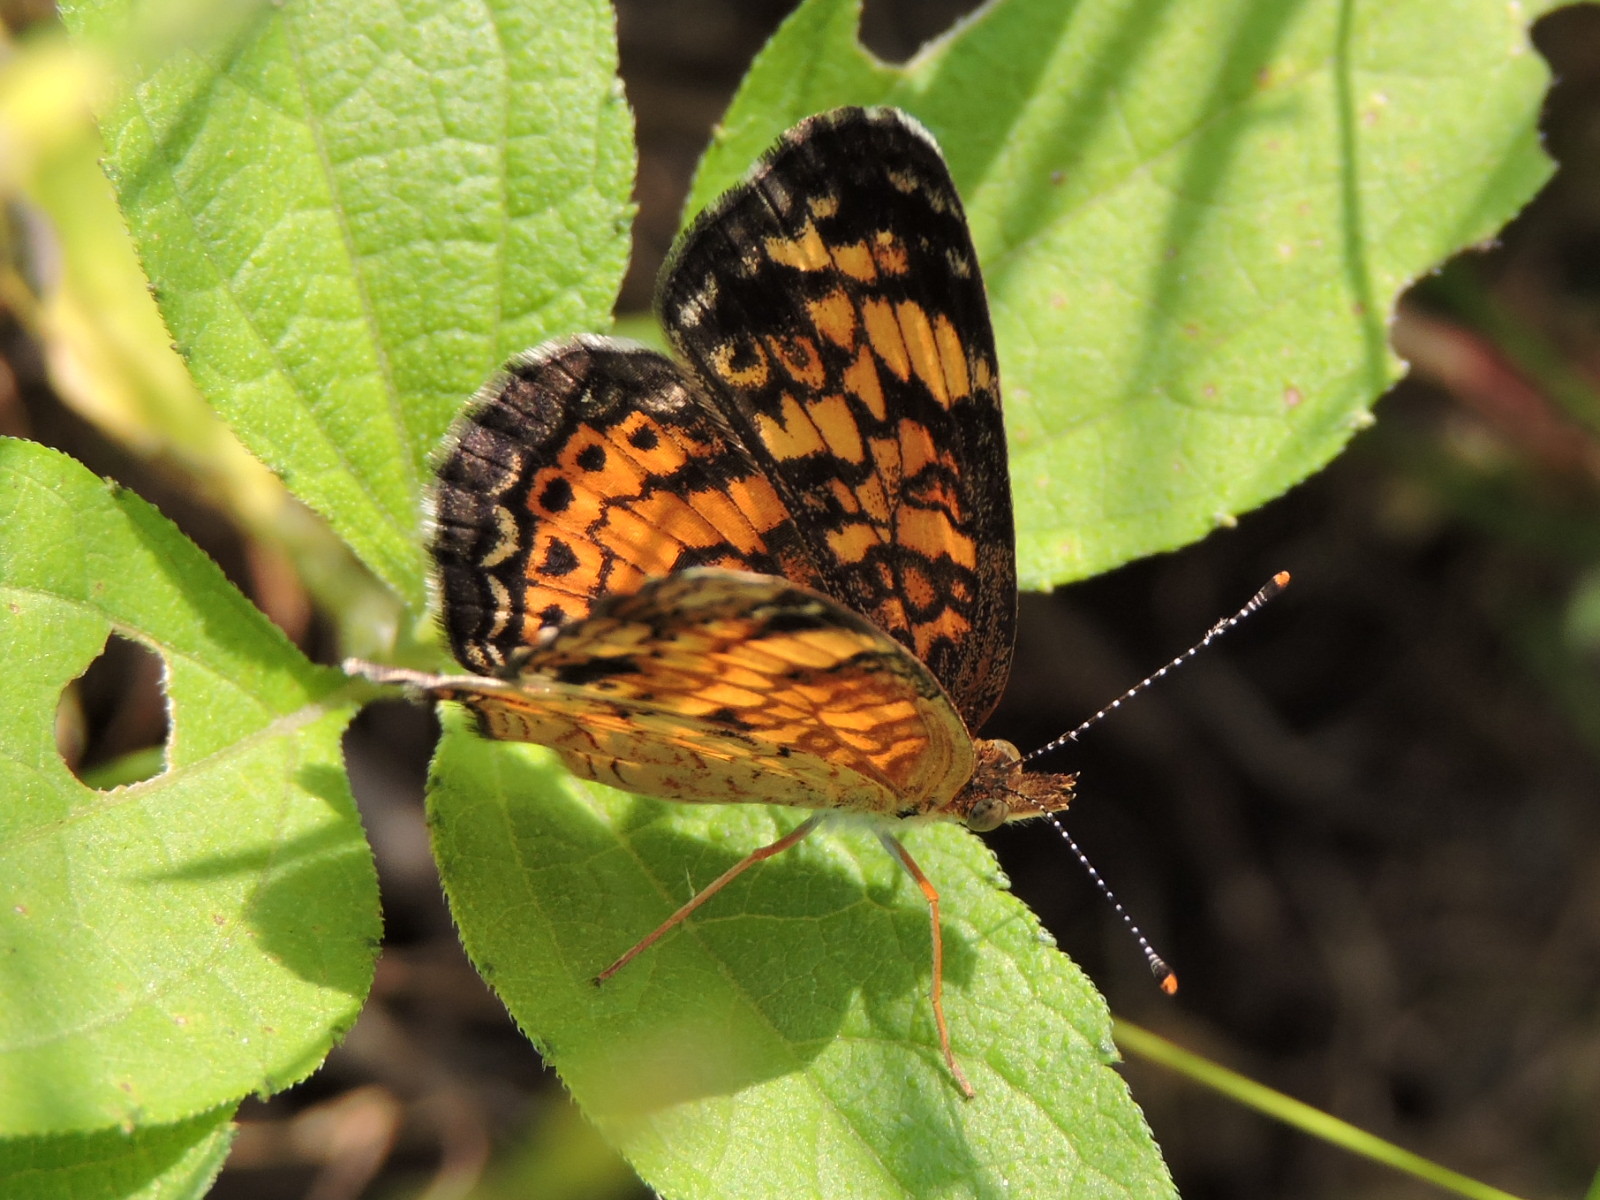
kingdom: Animalia
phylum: Arthropoda
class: Insecta
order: Lepidoptera
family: Nymphalidae
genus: Phyciodes
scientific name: Phyciodes tharos
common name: Pearl crescent
